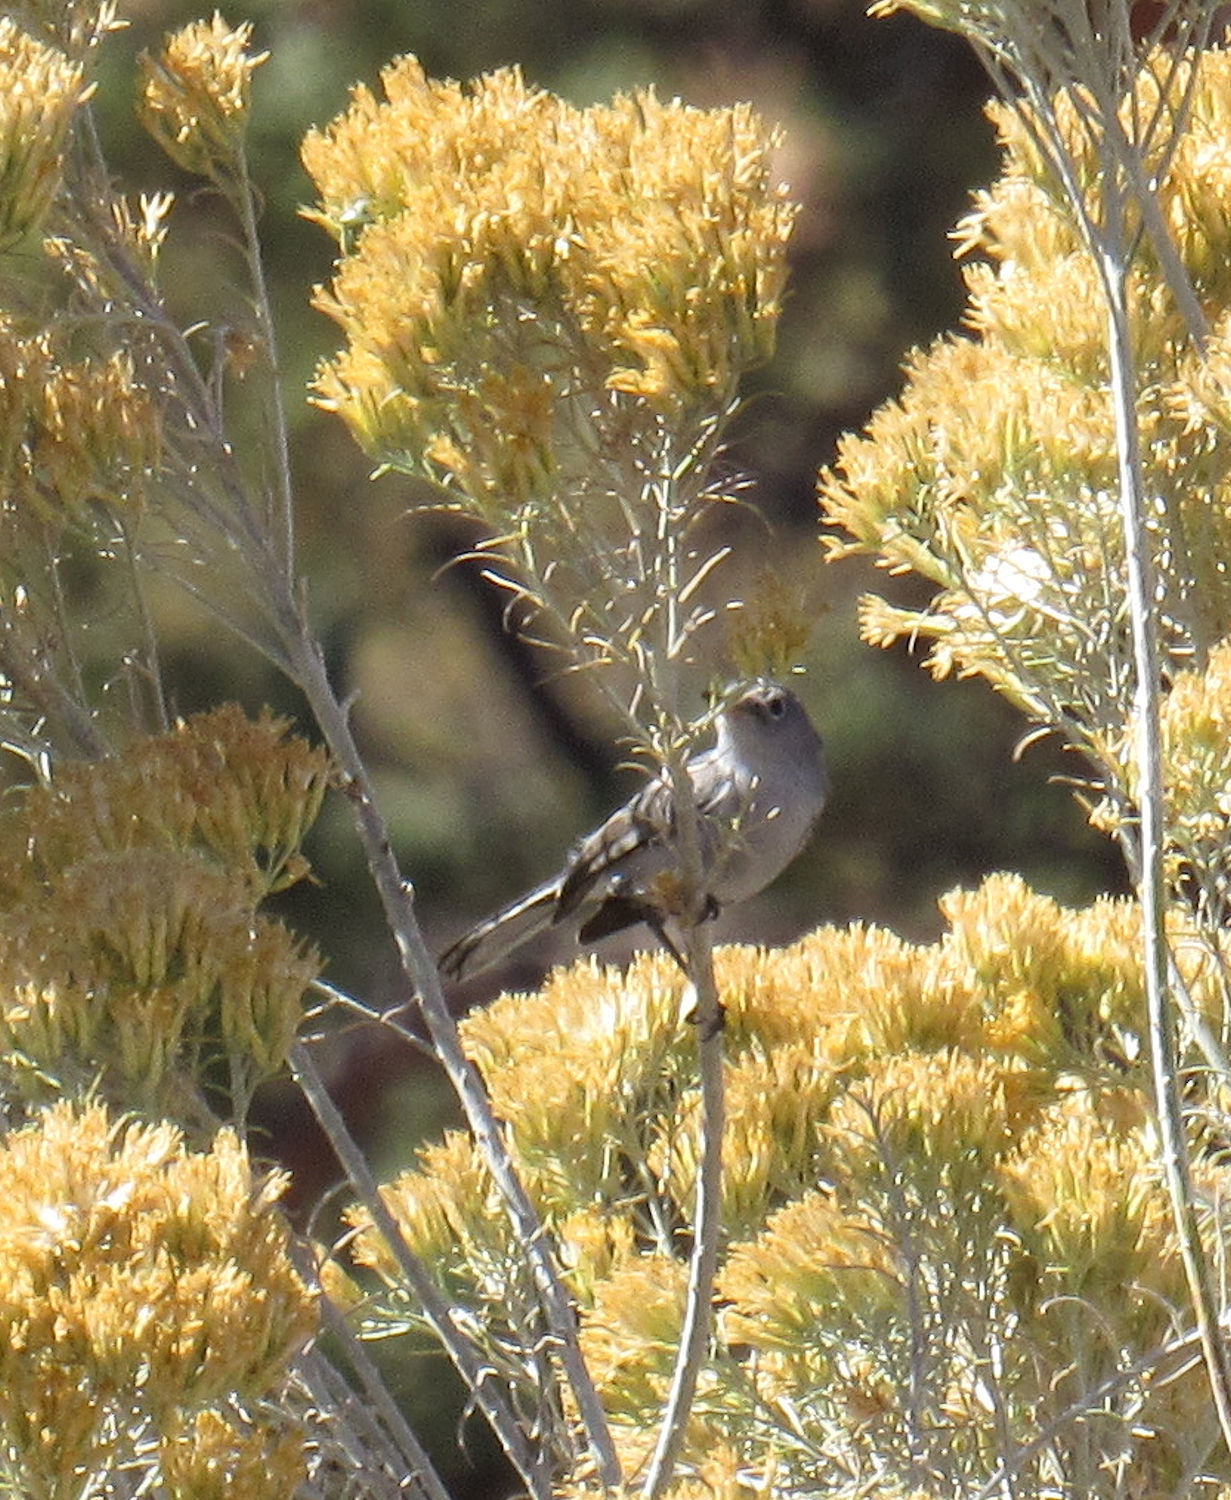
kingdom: Animalia
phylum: Chordata
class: Aves
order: Passeriformes
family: Polioptilidae
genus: Polioptila
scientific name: Polioptila caerulea
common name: Blue-gray gnatcatcher
